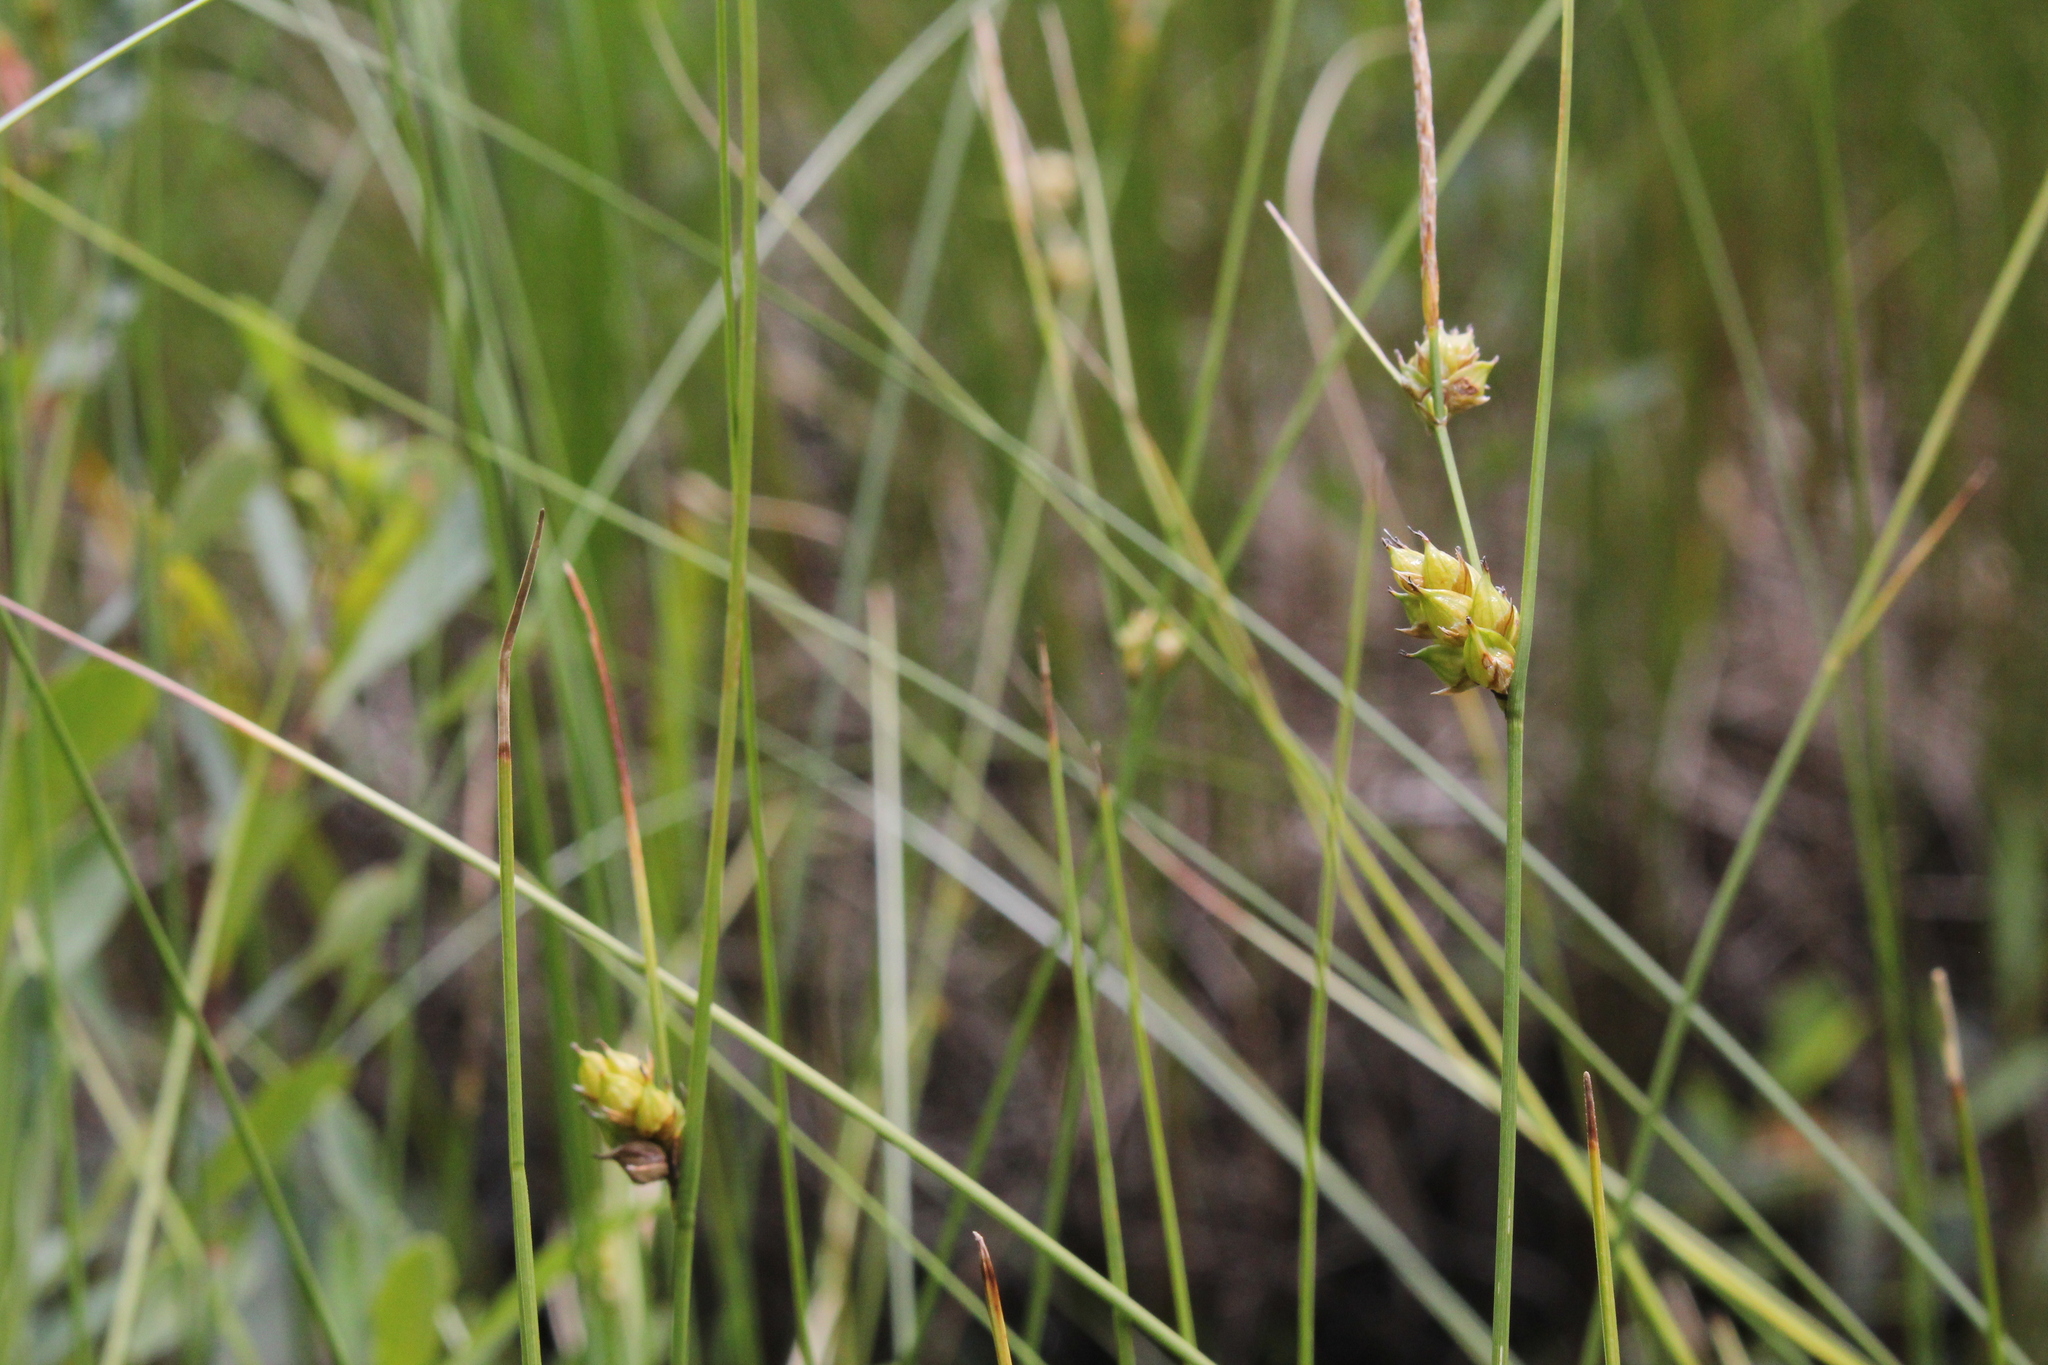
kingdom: Plantae
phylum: Tracheophyta
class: Liliopsida
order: Poales
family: Cyperaceae
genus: Carex
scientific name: Carex oligosperma
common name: Few-seed sedge
